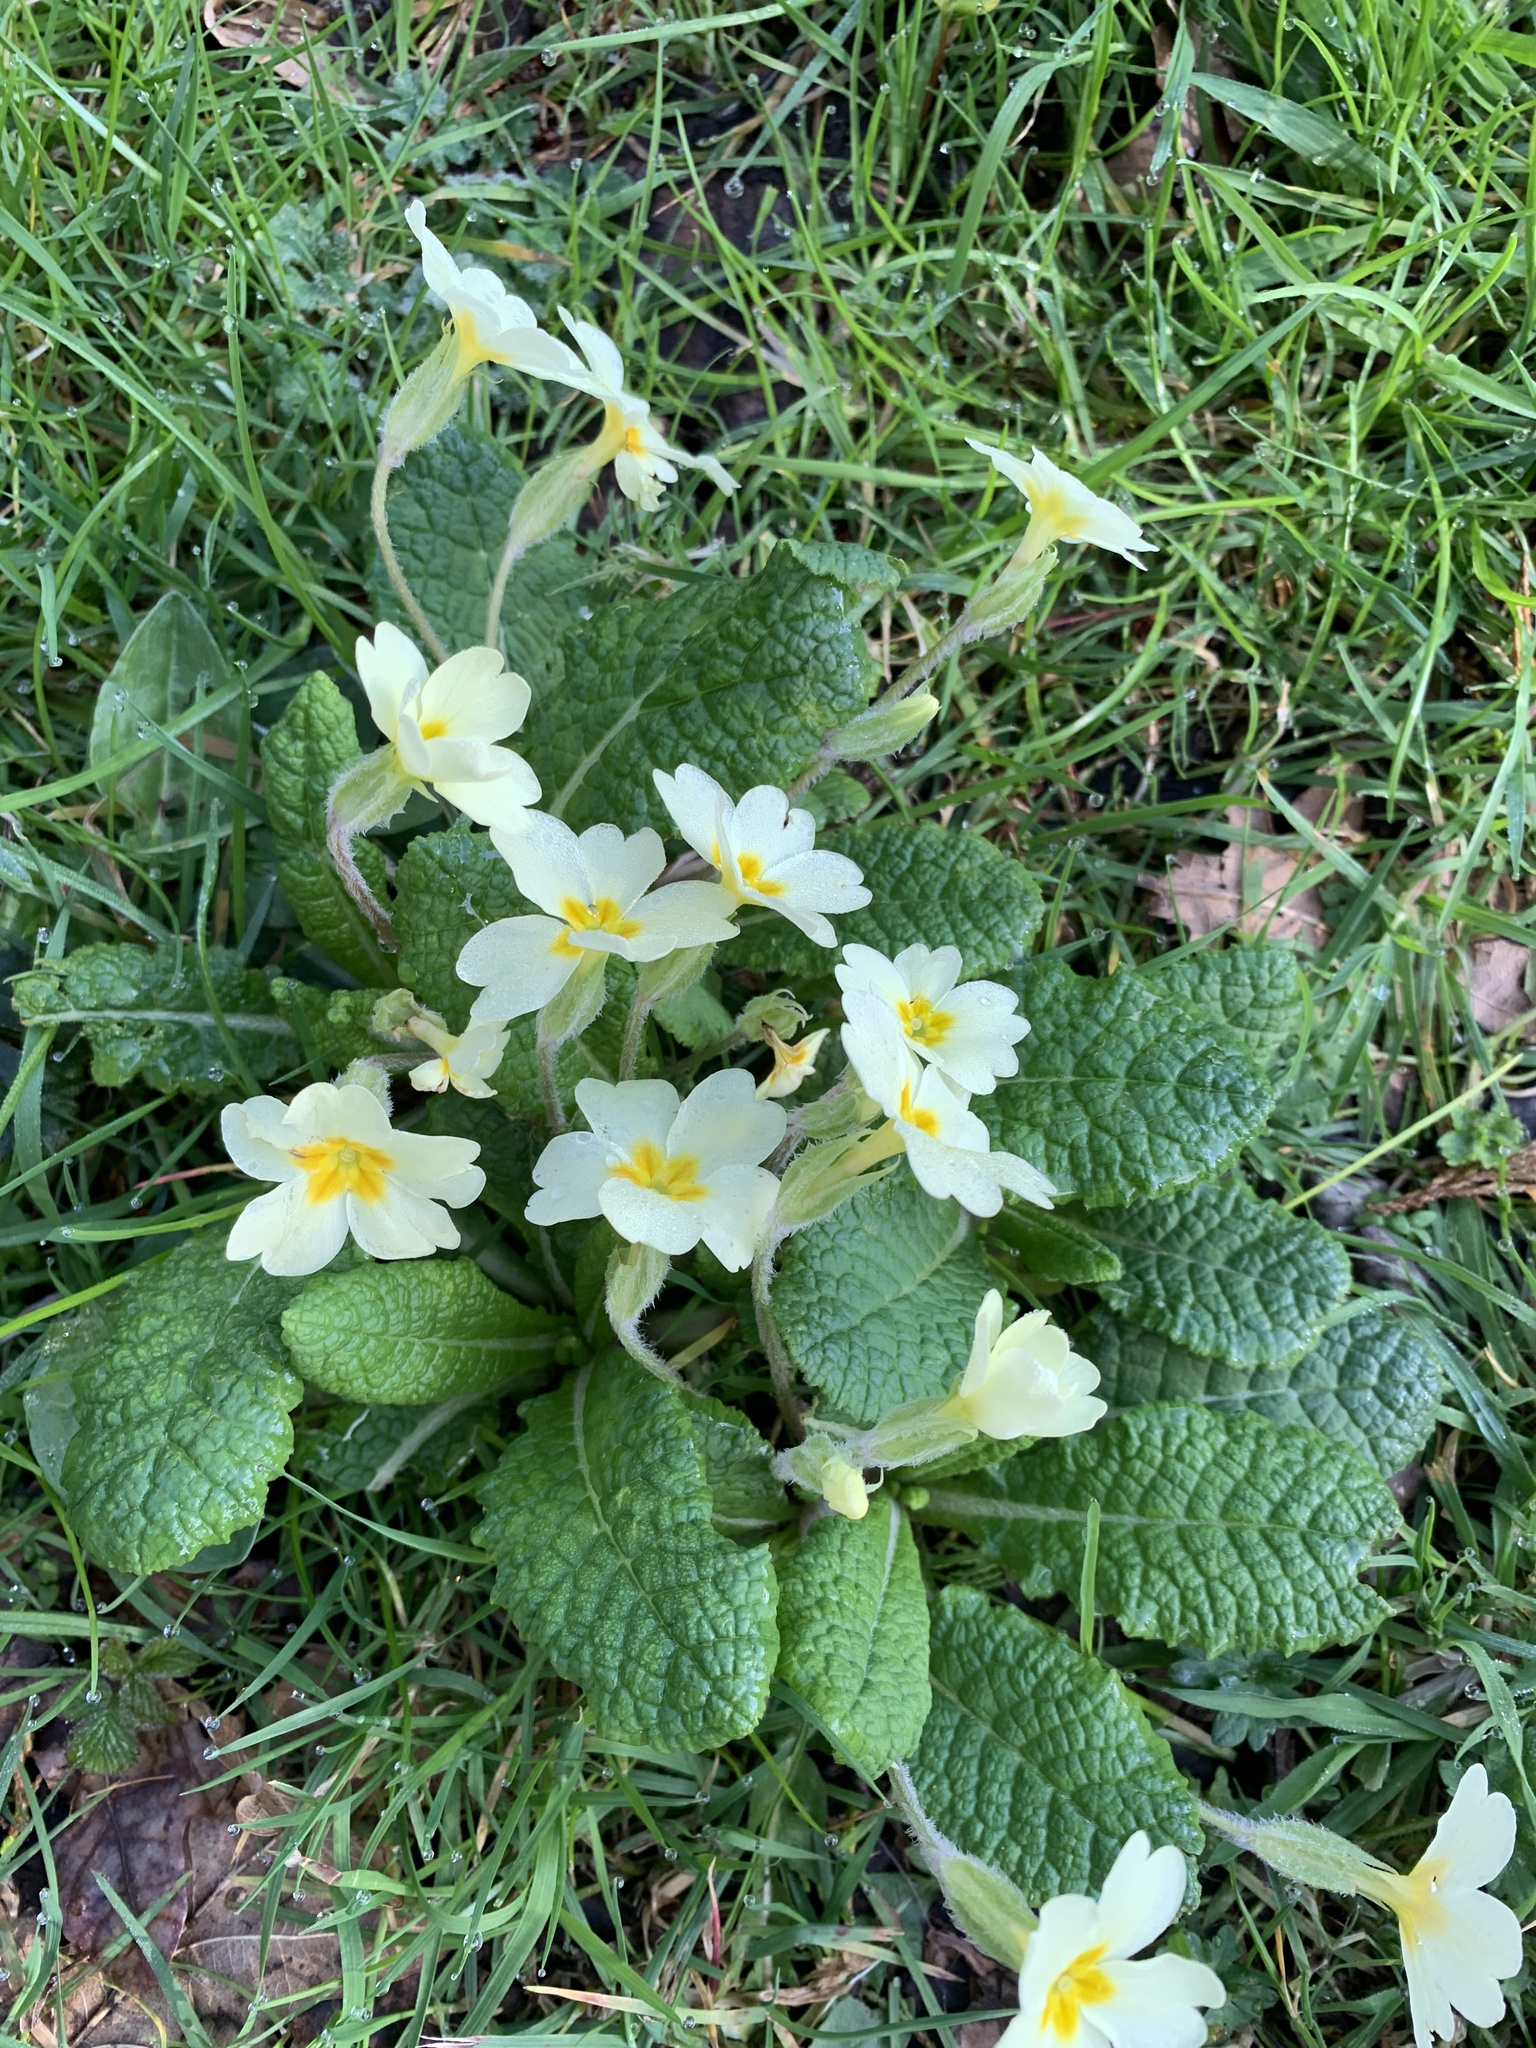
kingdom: Plantae
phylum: Tracheophyta
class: Magnoliopsida
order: Ericales
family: Primulaceae
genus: Primula
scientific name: Primula vulgaris
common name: Primrose
